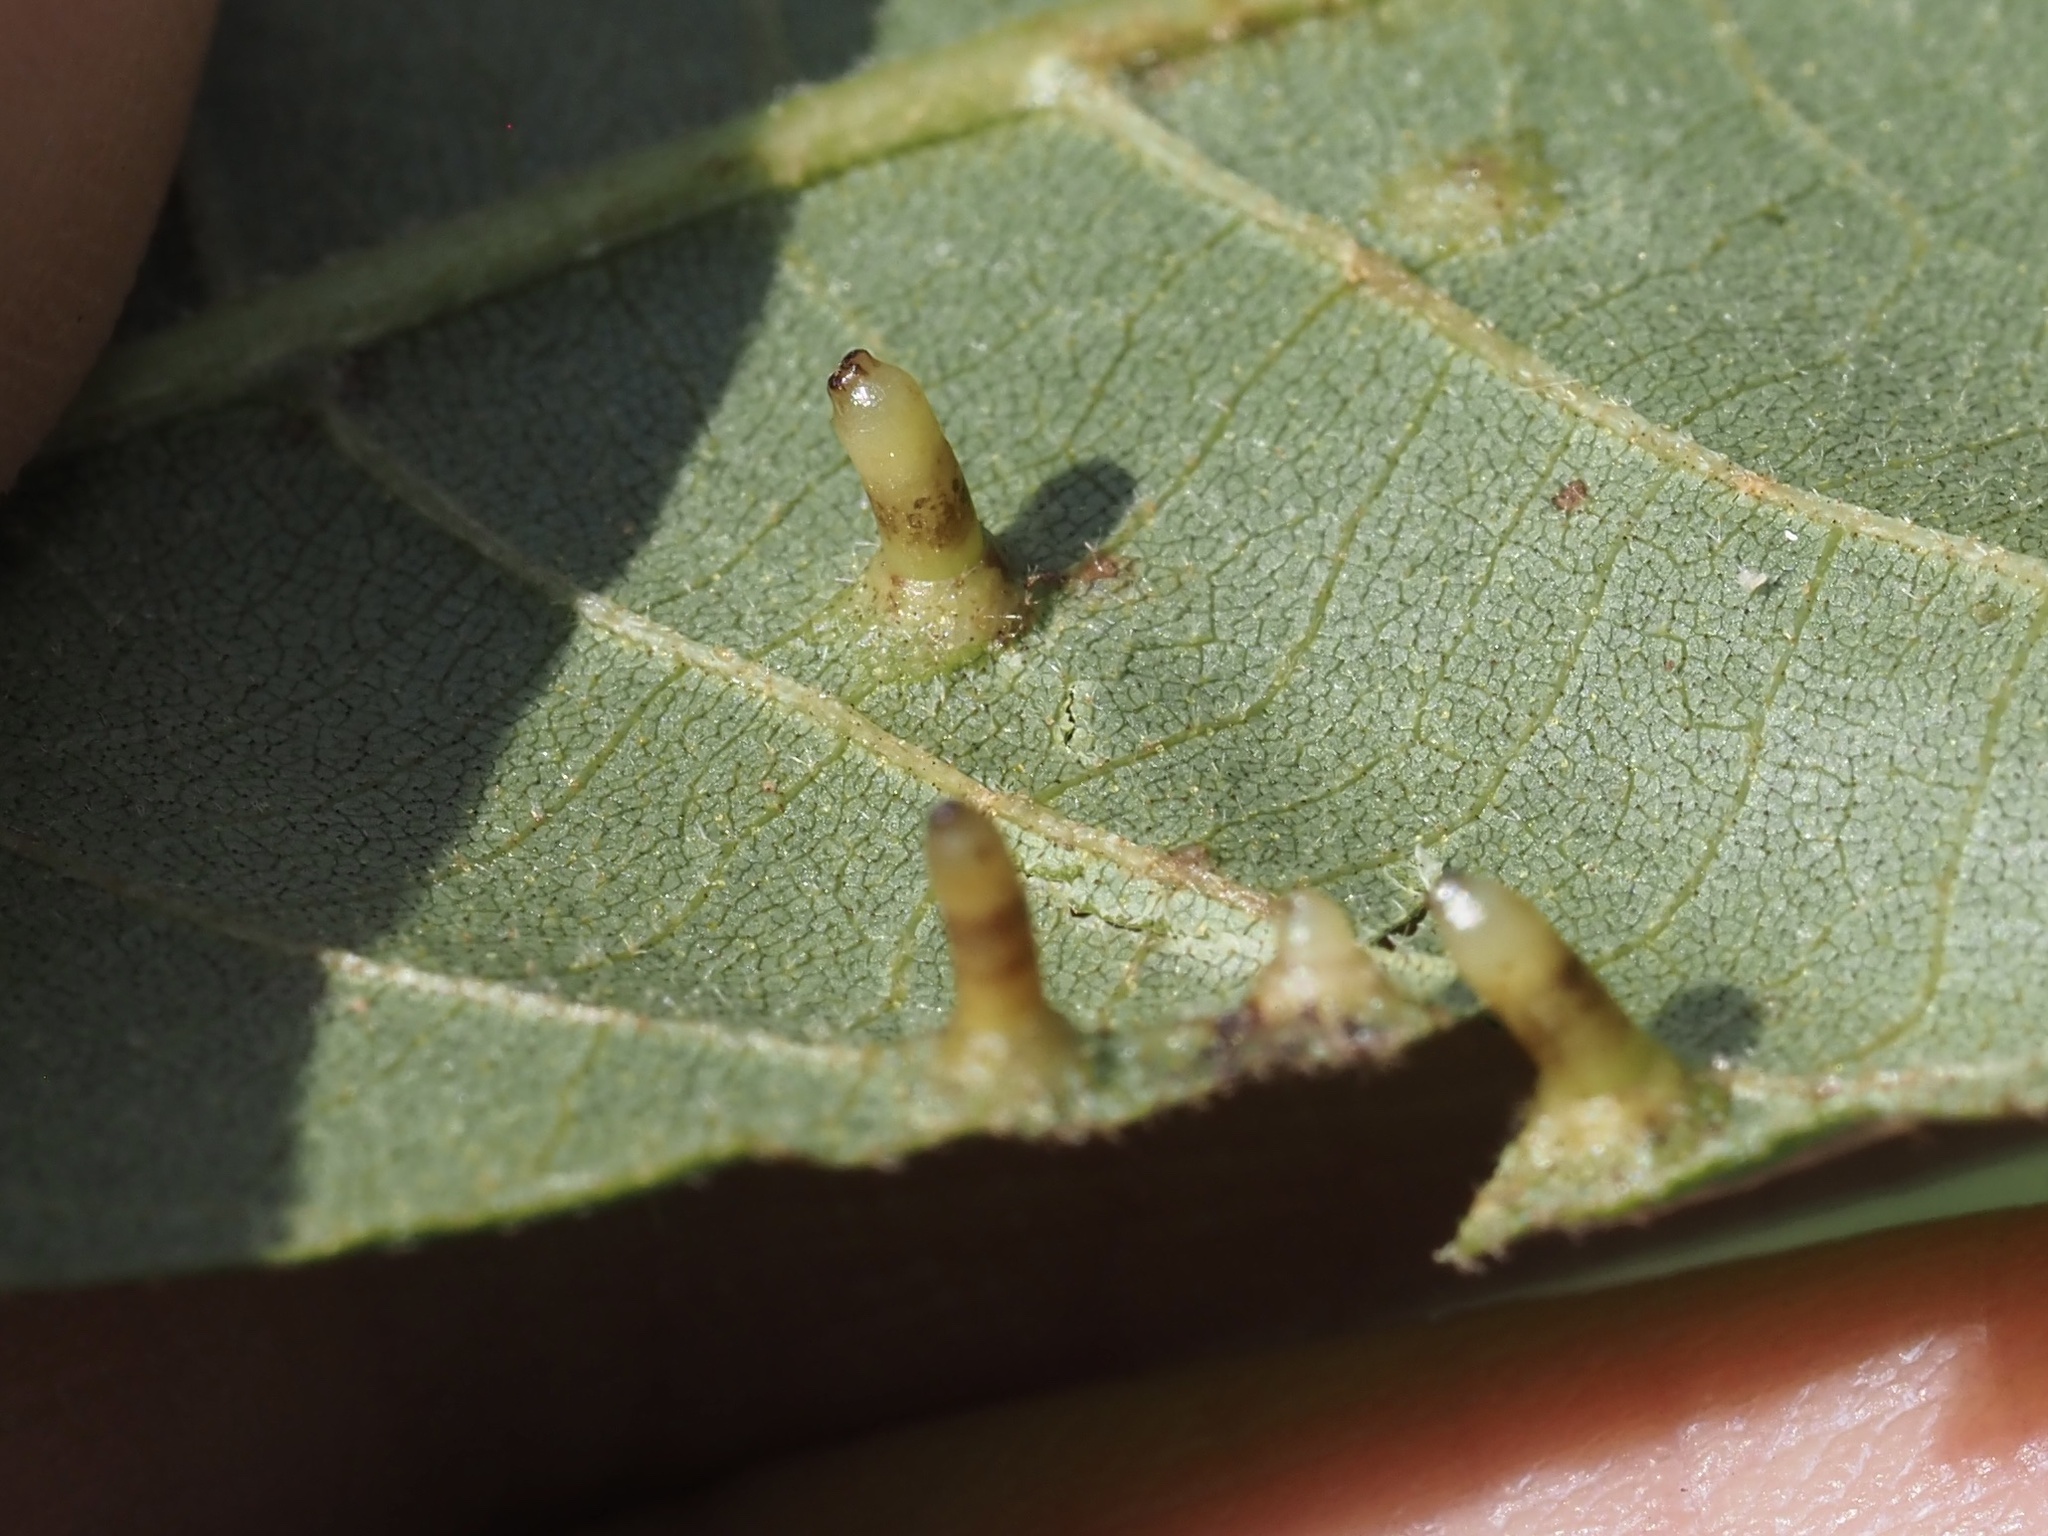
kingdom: Animalia
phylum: Arthropoda
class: Insecta
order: Diptera
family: Cecidomyiidae
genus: Caryomyia
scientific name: Caryomyia tubicola
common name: Hickory bullet gall midge
